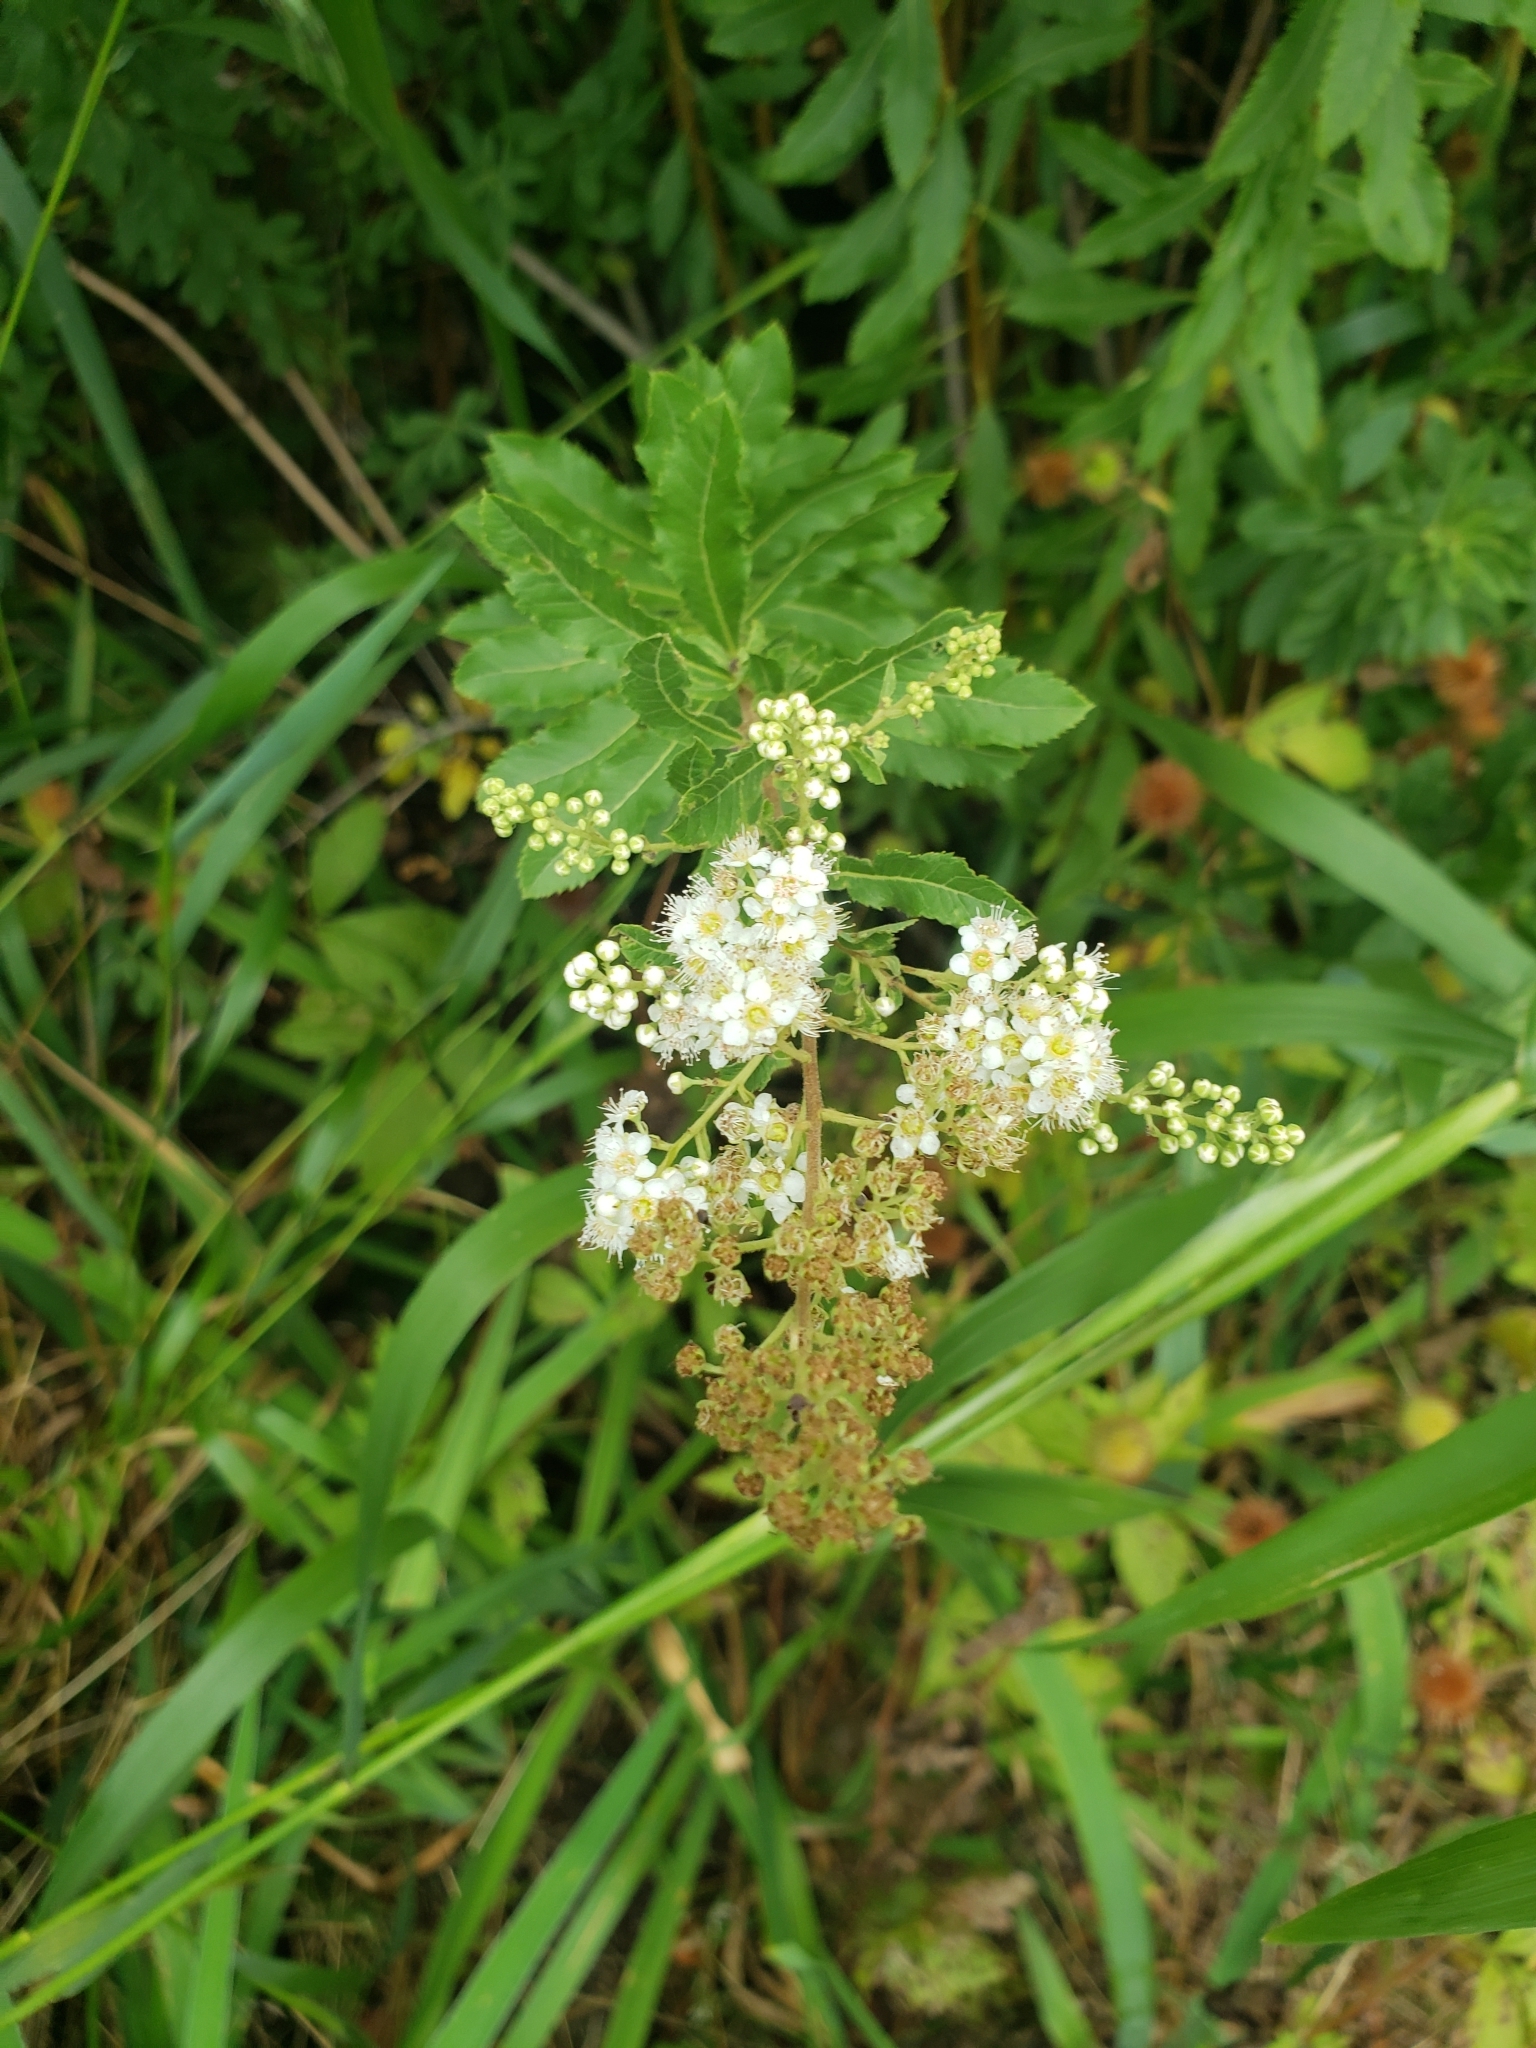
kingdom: Plantae
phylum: Tracheophyta
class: Magnoliopsida
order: Rosales
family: Rosaceae
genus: Spiraea
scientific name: Spiraea alba
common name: Pale bridewort
